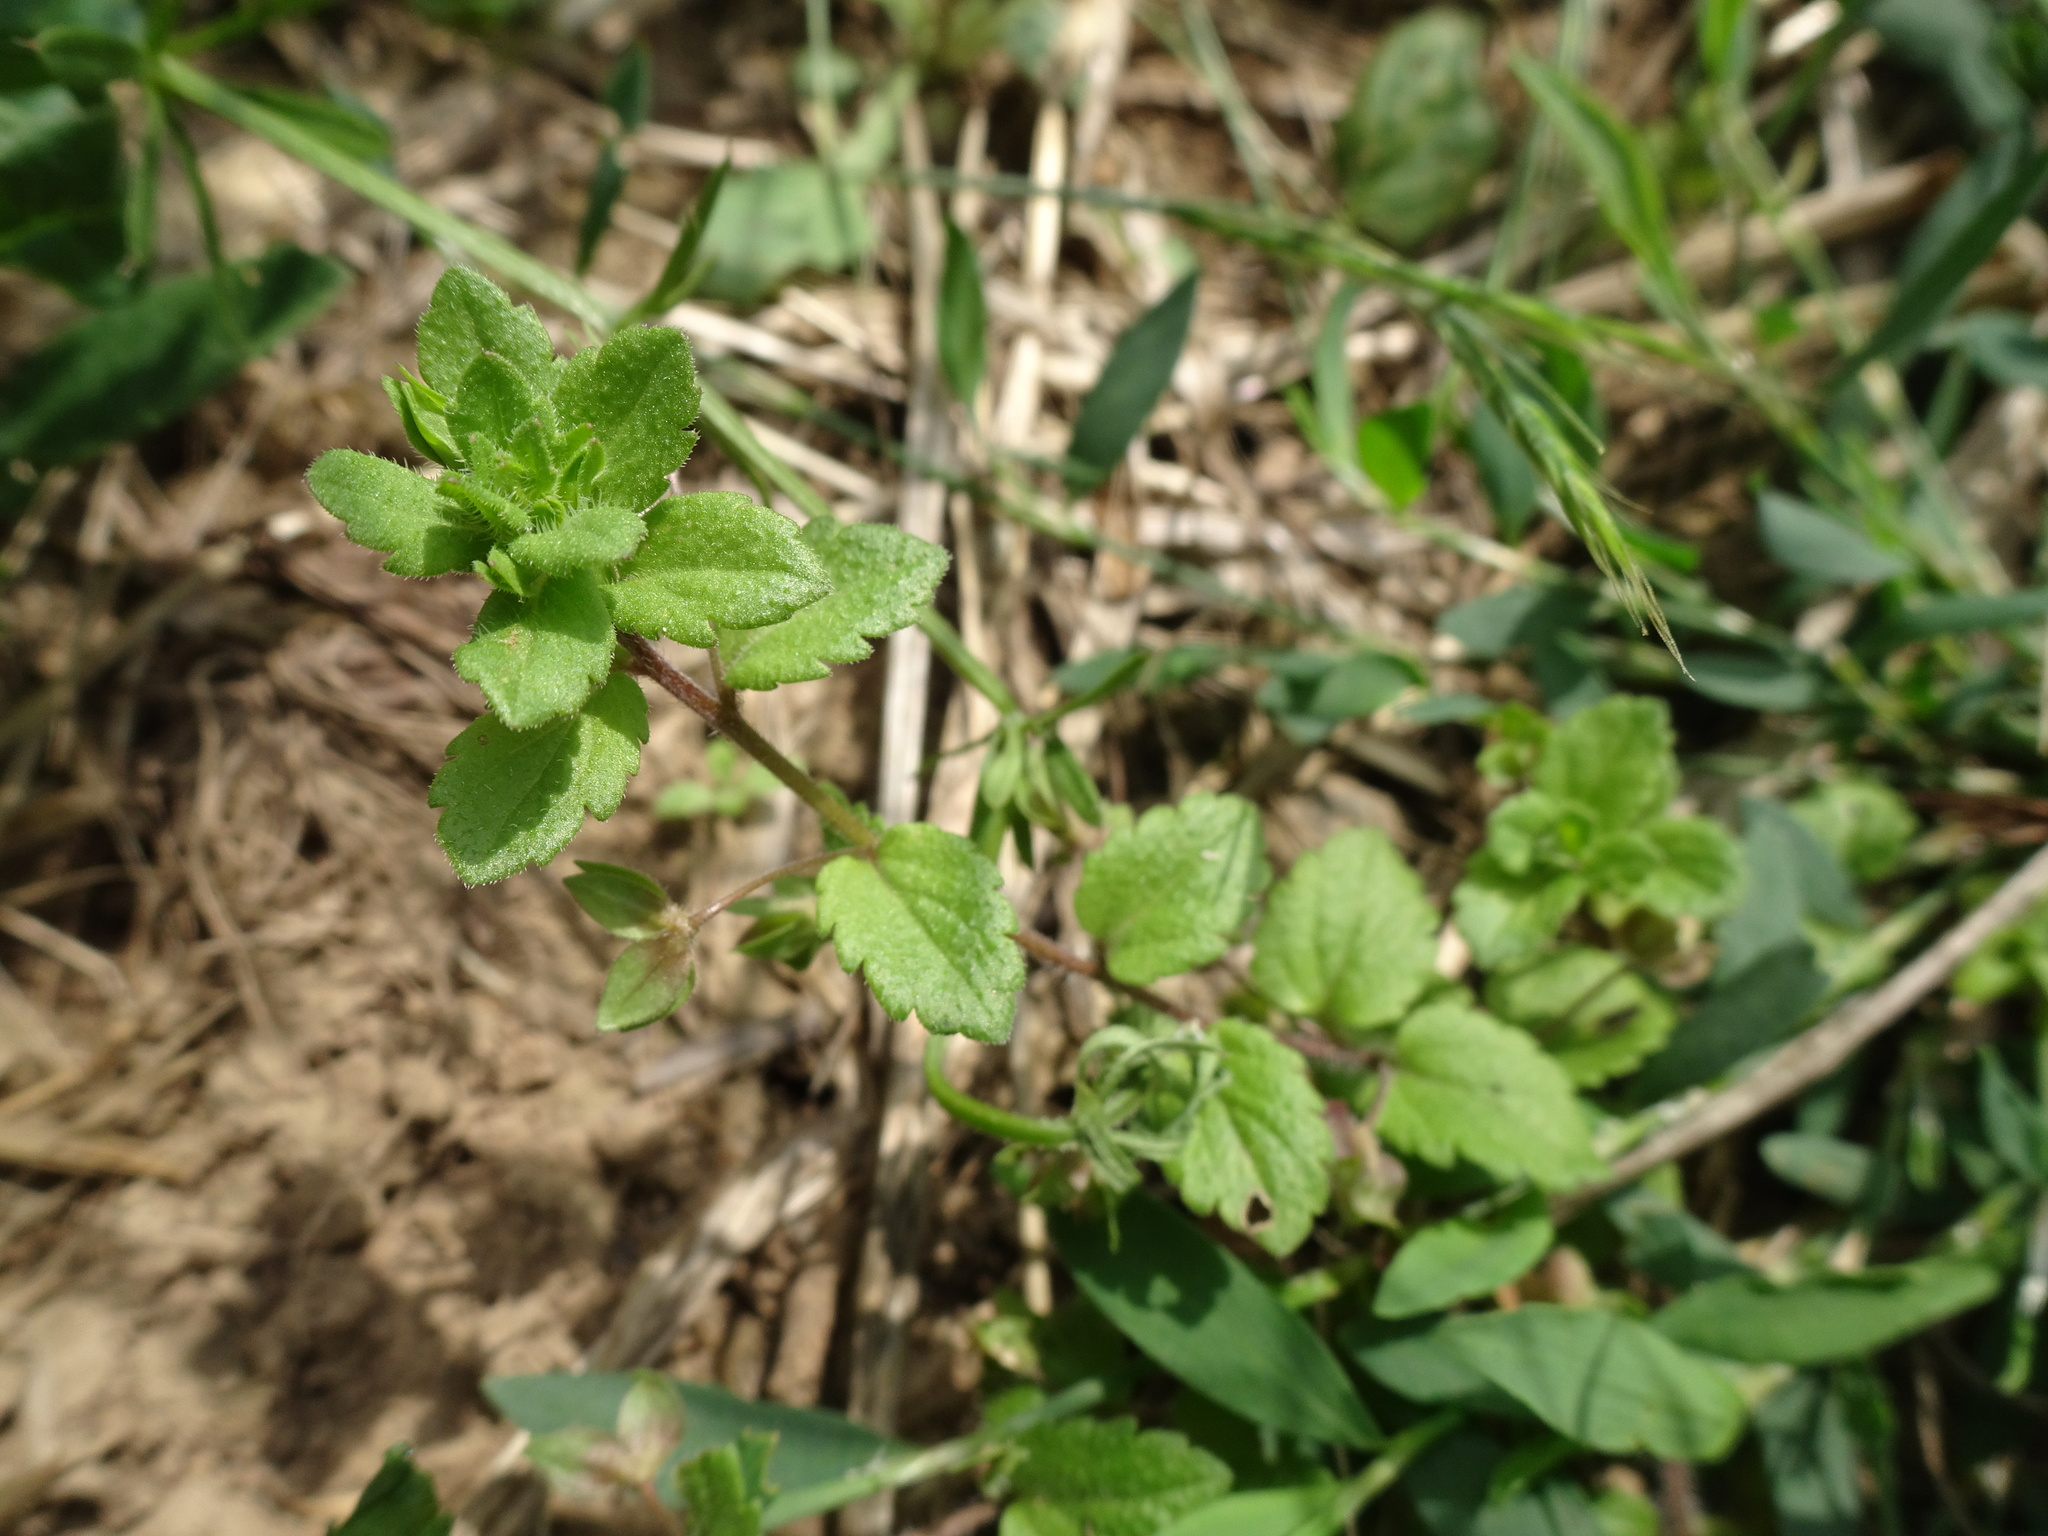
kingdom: Plantae
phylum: Tracheophyta
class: Magnoliopsida
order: Lamiales
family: Plantaginaceae
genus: Veronica
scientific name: Veronica persica
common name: Common field-speedwell
